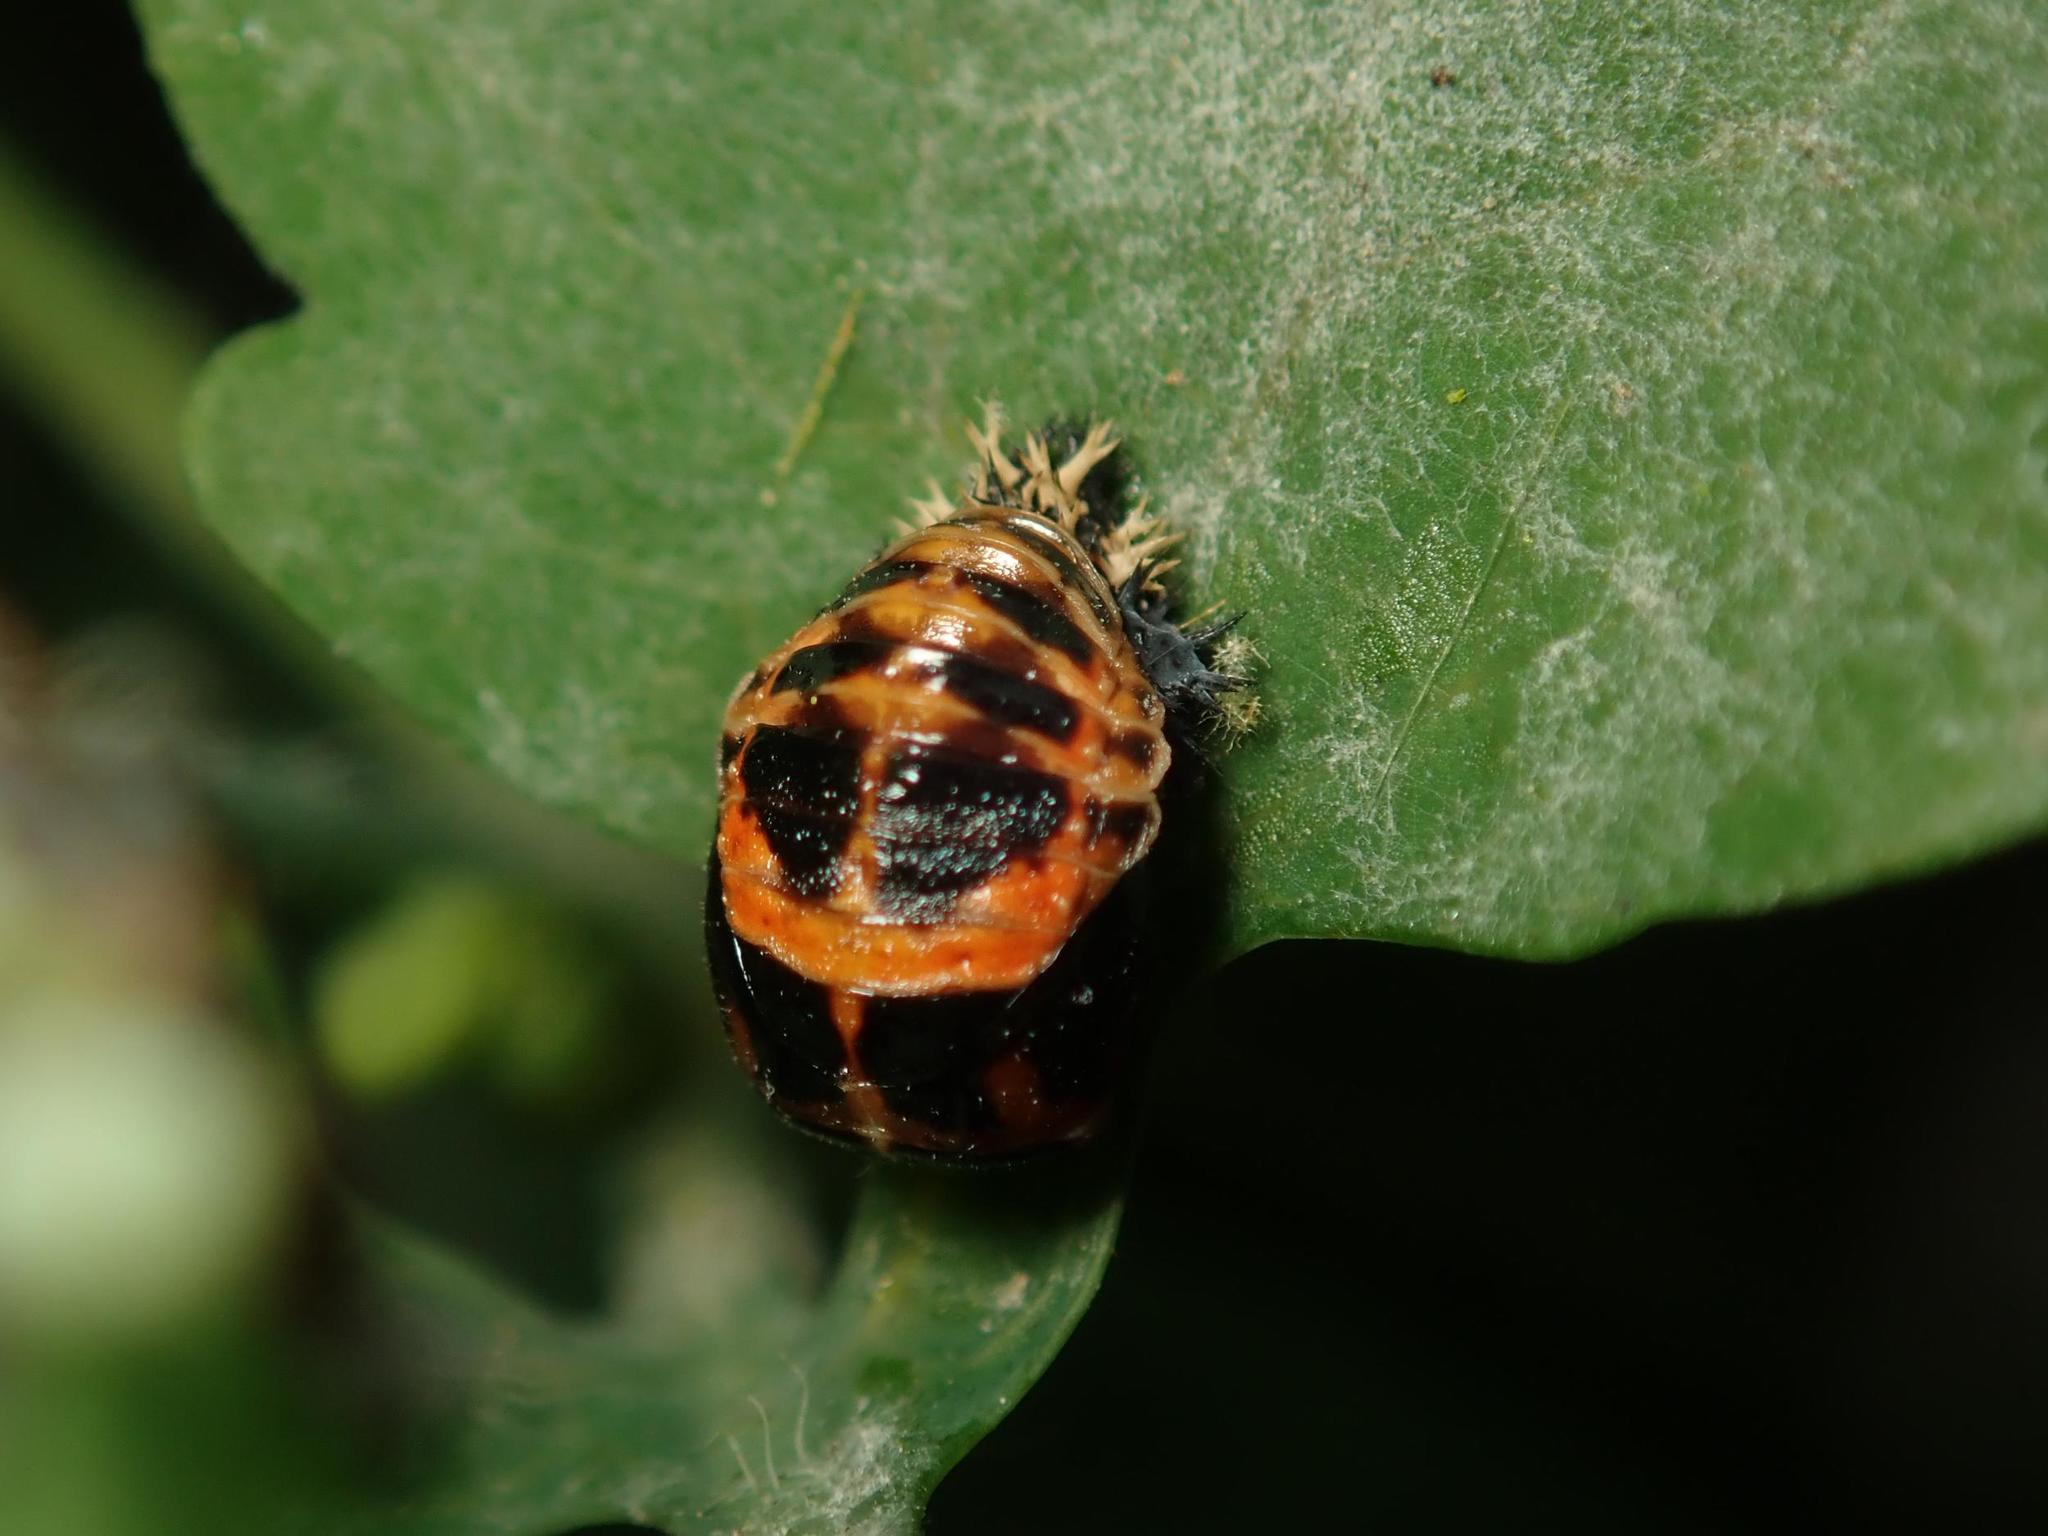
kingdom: Animalia
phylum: Arthropoda
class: Insecta
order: Coleoptera
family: Coccinellidae
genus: Harmonia
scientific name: Harmonia axyridis
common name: Harlequin ladybird
